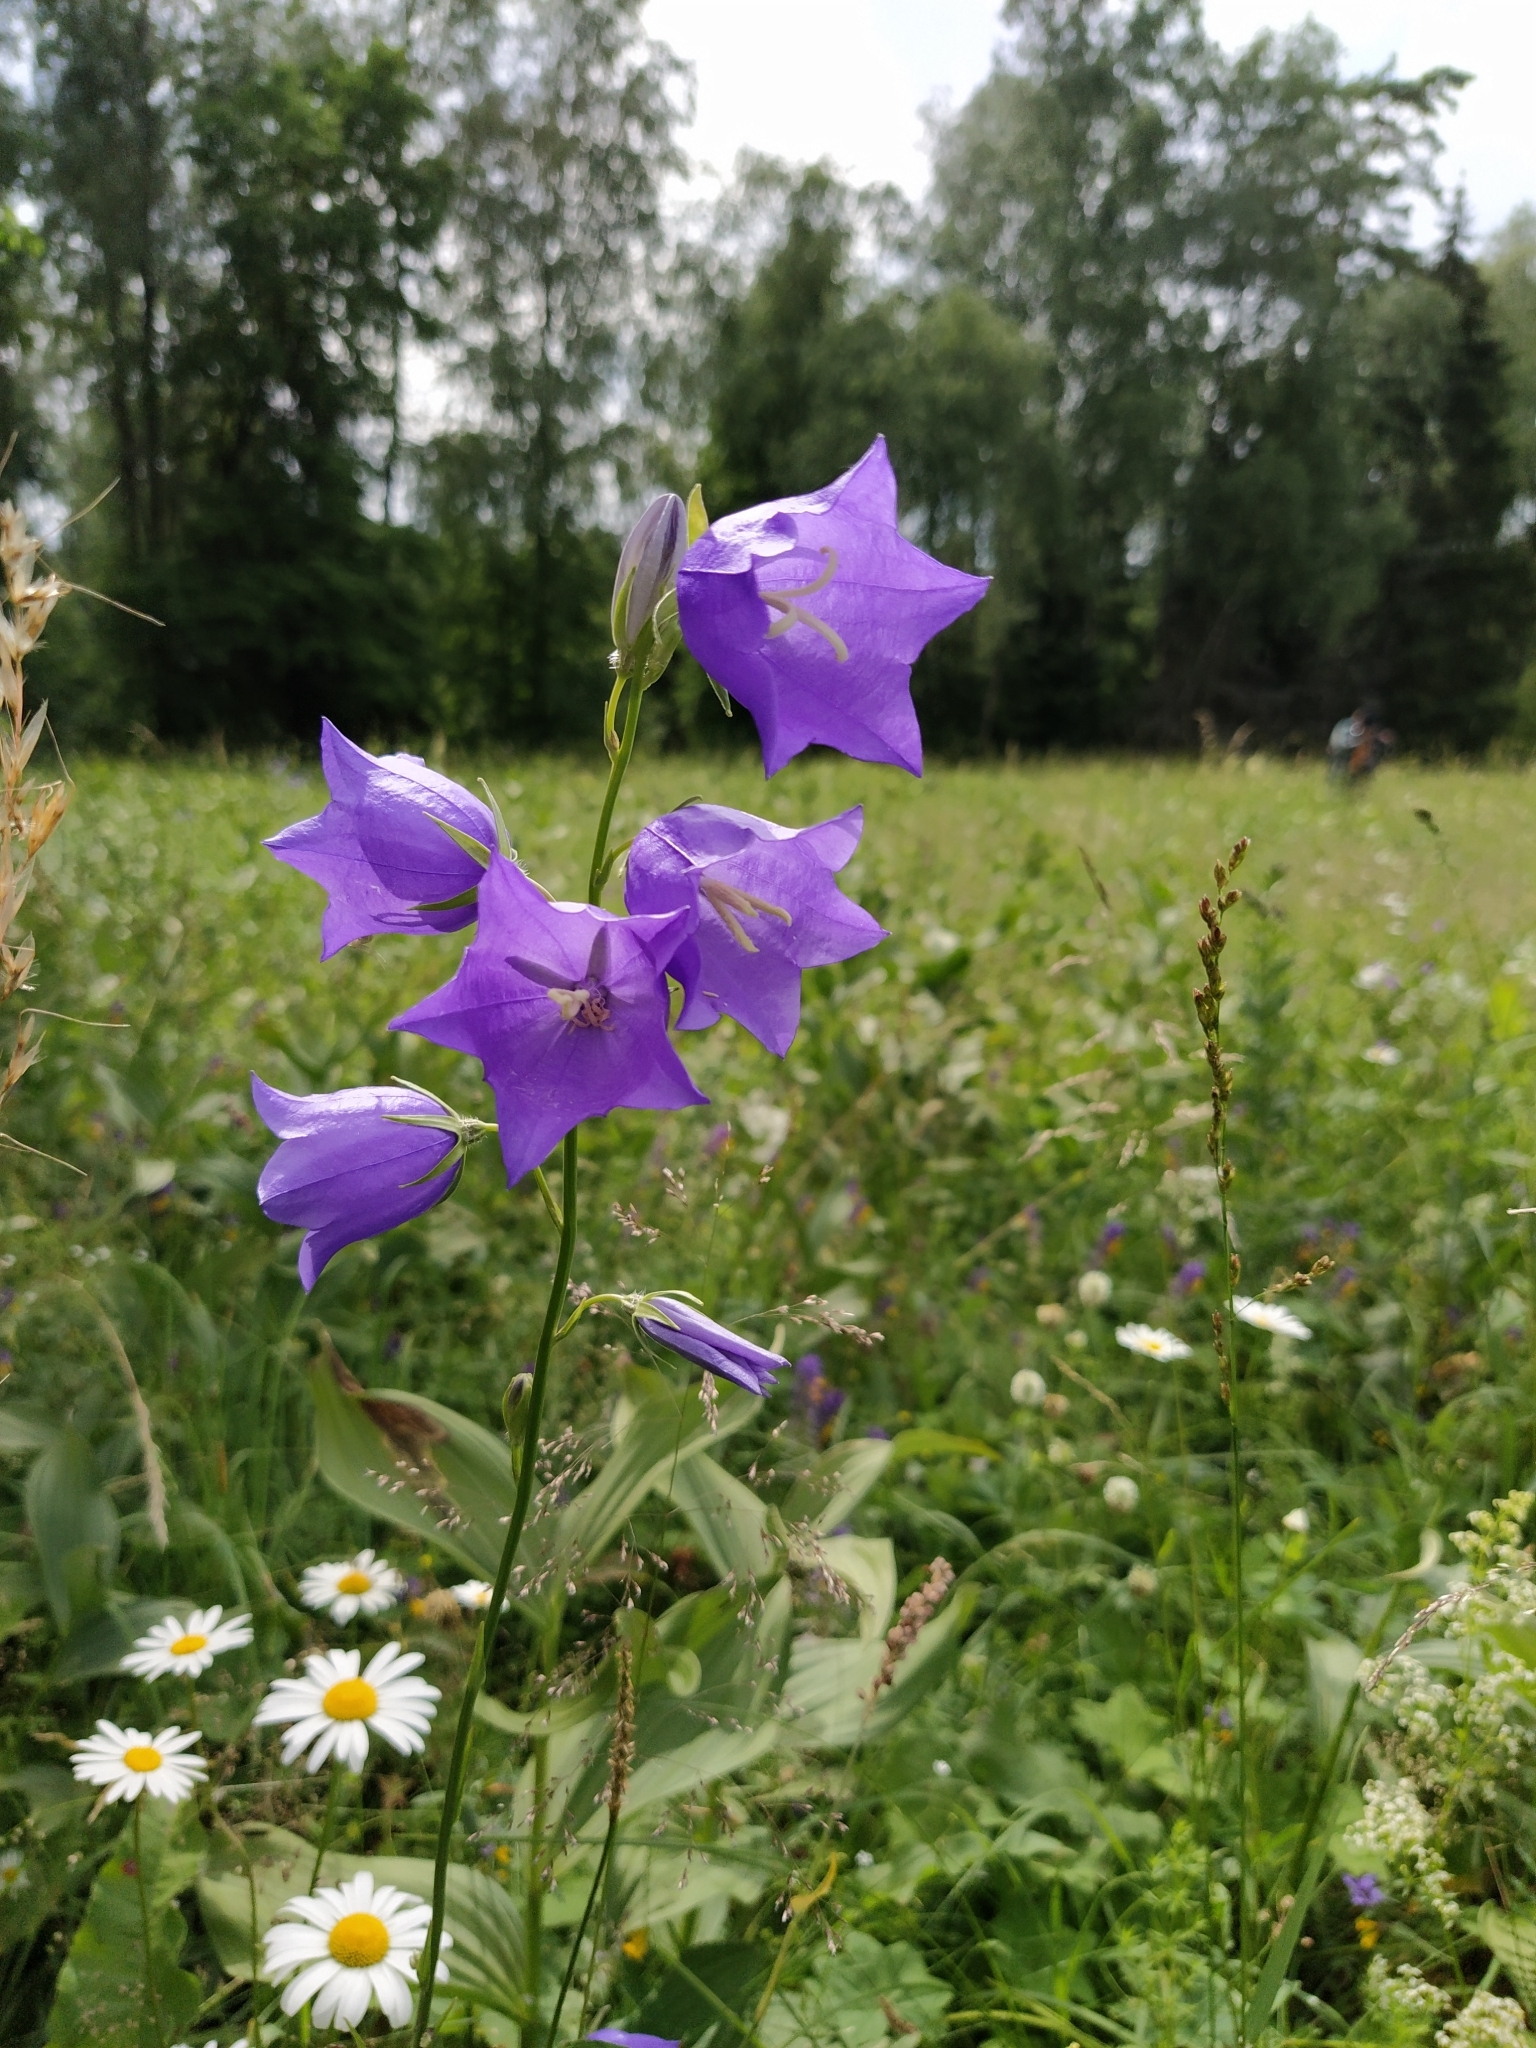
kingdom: Plantae
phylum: Tracheophyta
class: Magnoliopsida
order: Asterales
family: Campanulaceae
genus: Campanula
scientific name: Campanula persicifolia
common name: Peach-leaved bellflower
